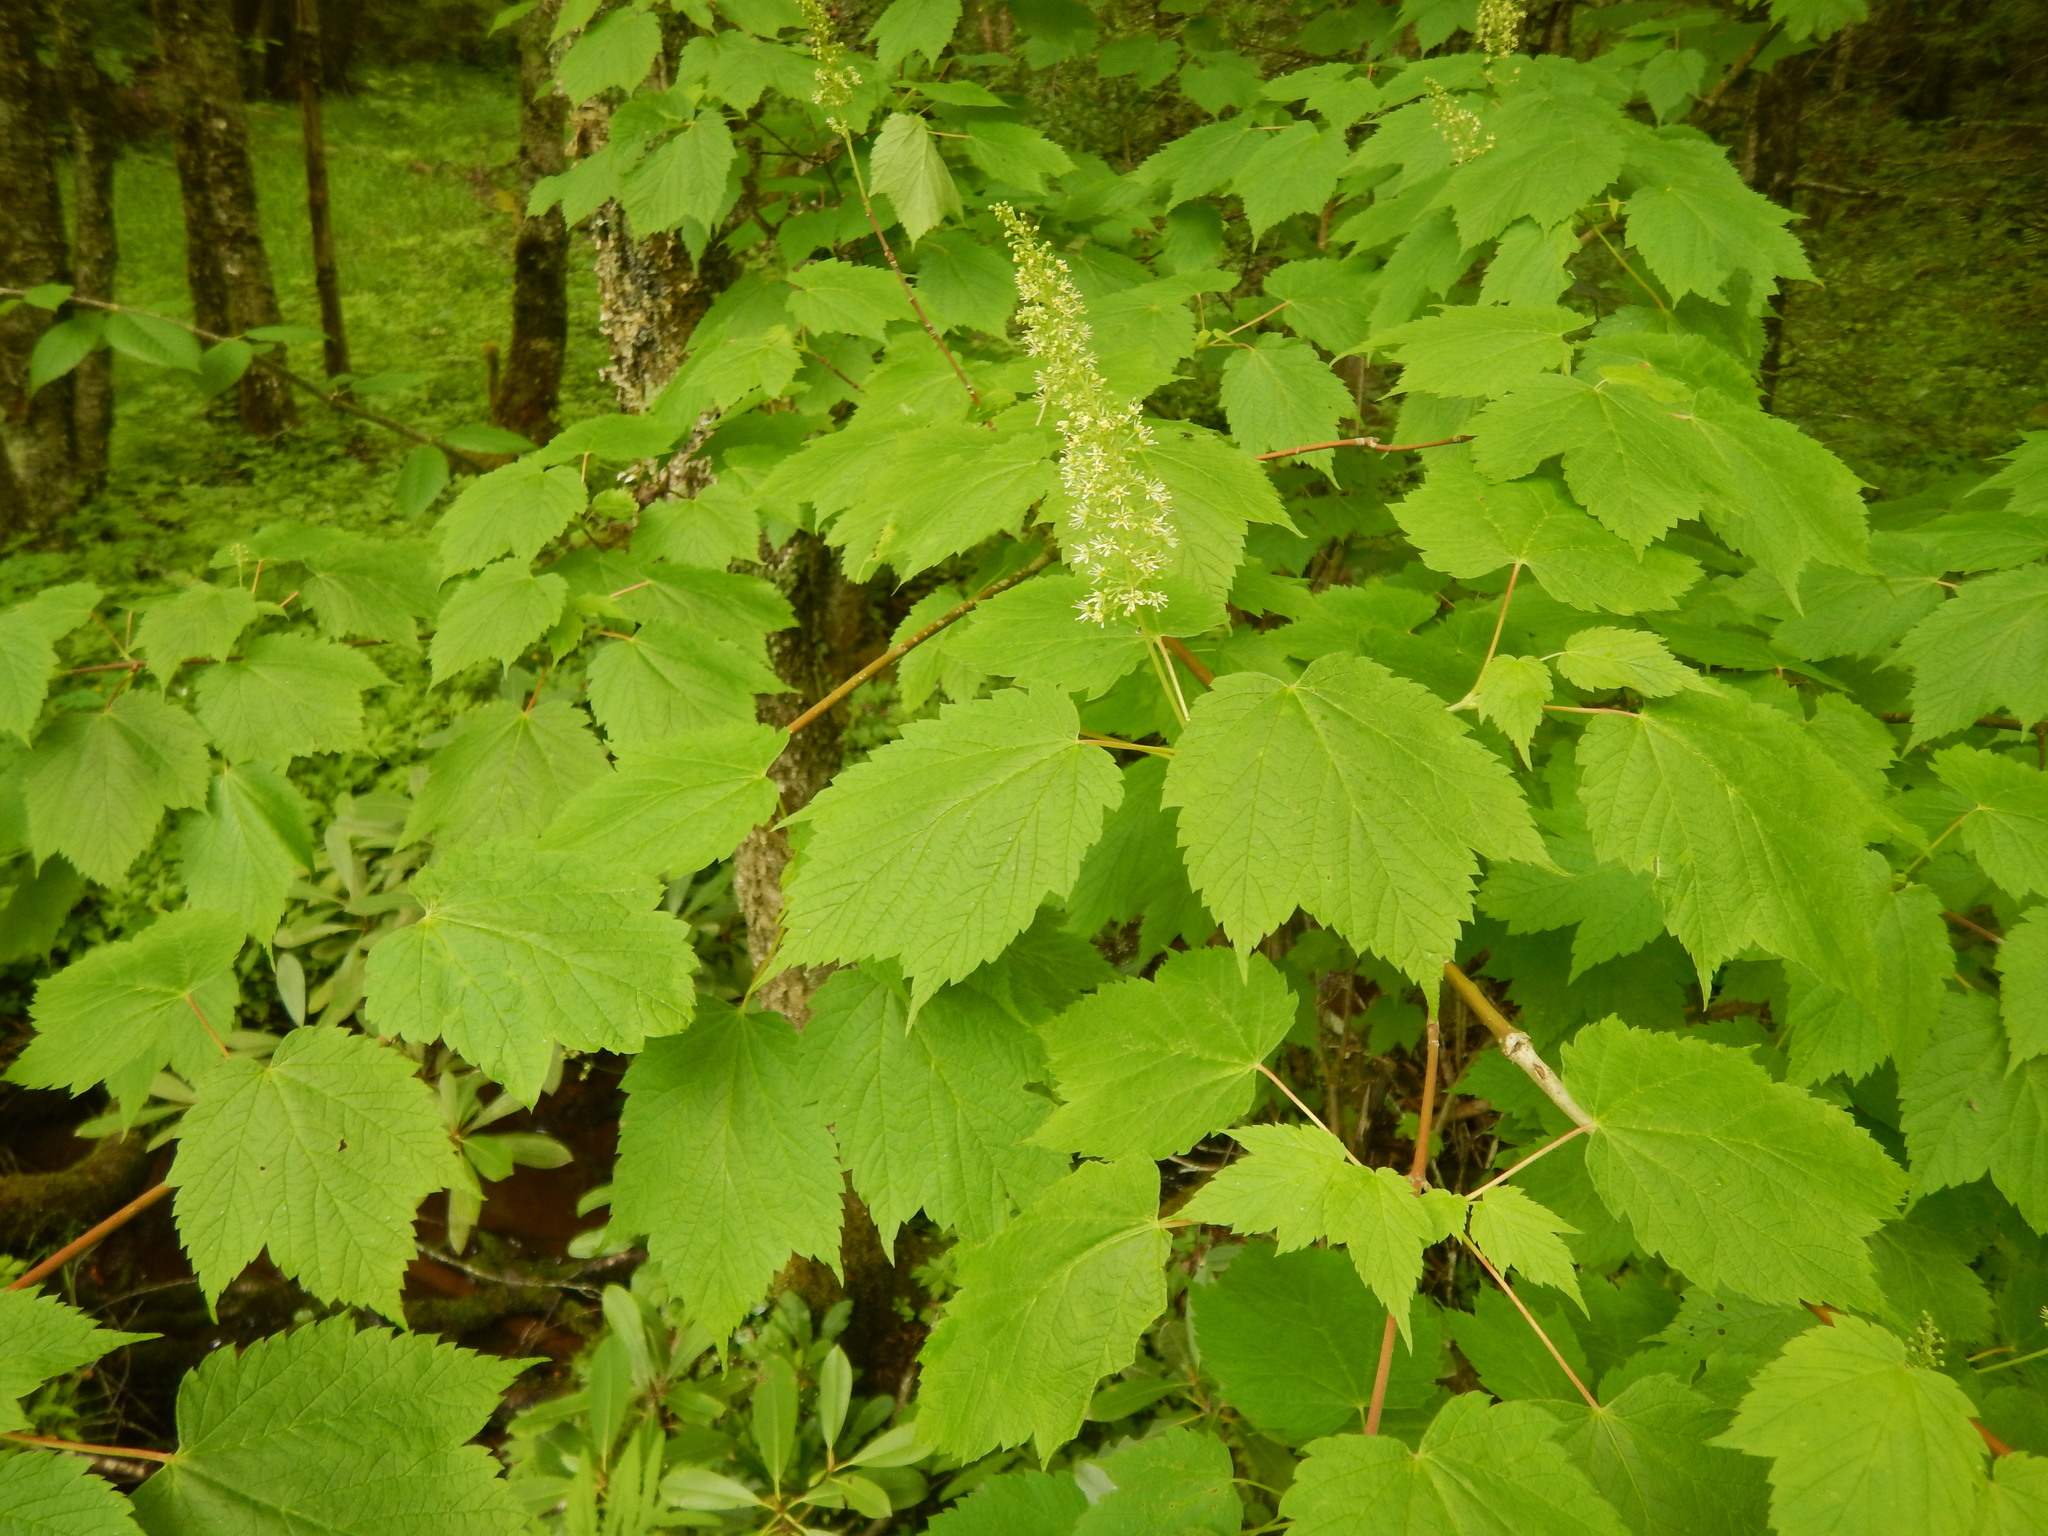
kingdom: Plantae
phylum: Tracheophyta
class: Magnoliopsida
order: Sapindales
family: Sapindaceae
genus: Acer
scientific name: Acer spicatum
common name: Mountain maple
